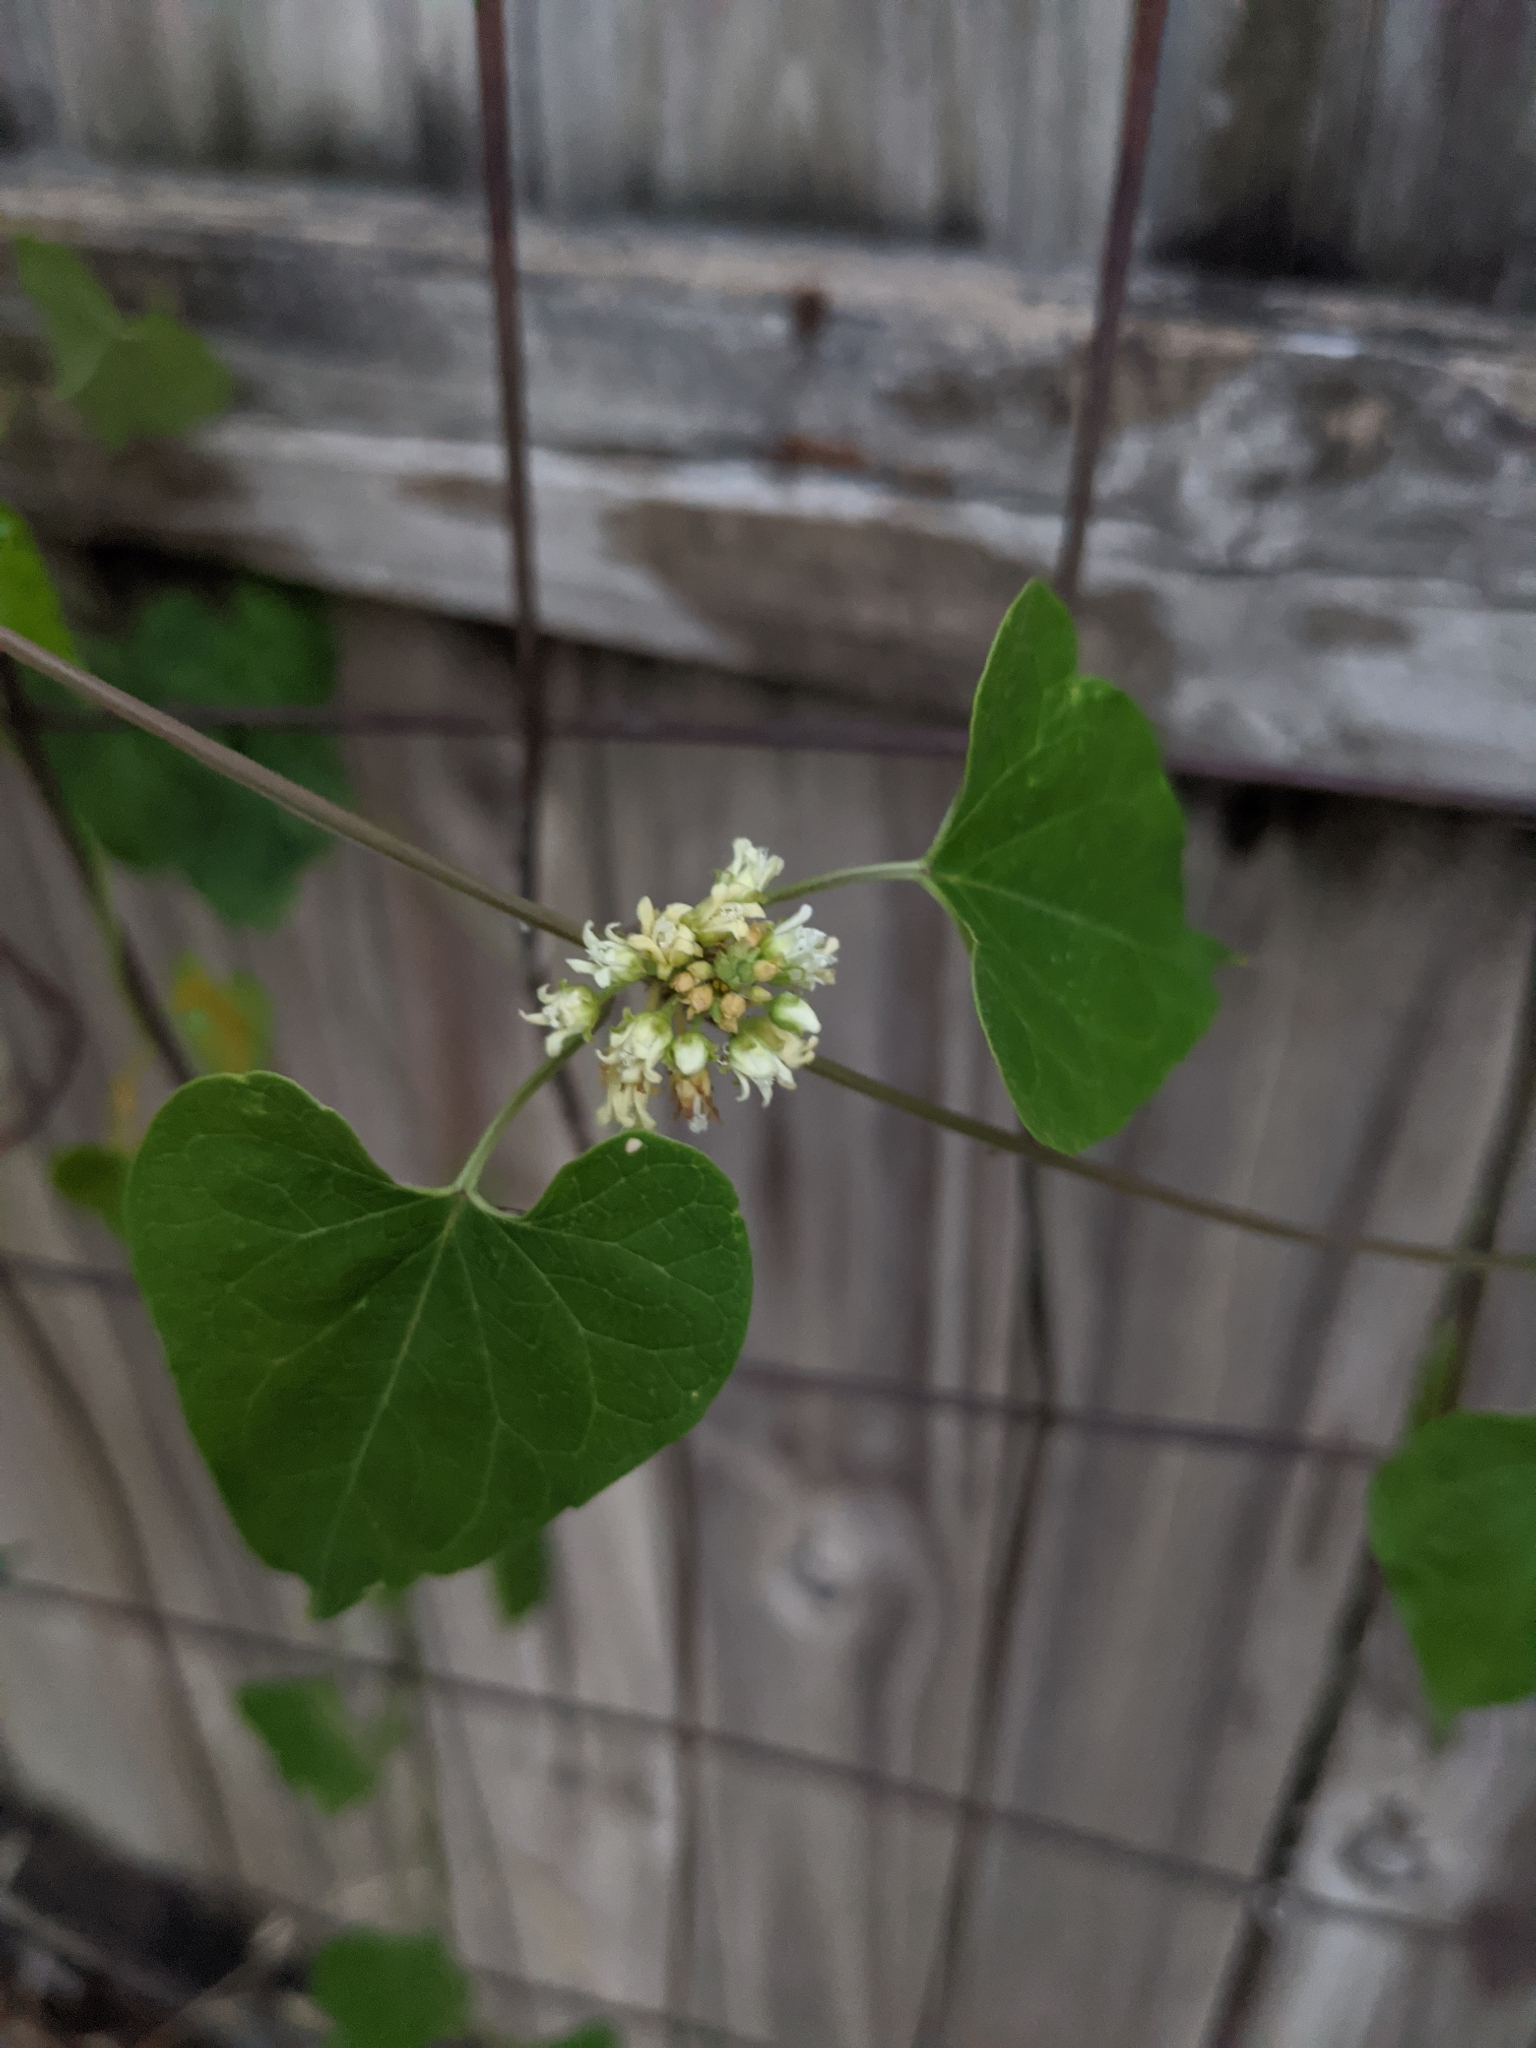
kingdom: Plantae
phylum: Tracheophyta
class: Magnoliopsida
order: Gentianales
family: Apocynaceae
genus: Cynanchum
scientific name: Cynanchum laeve
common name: Sandvine
